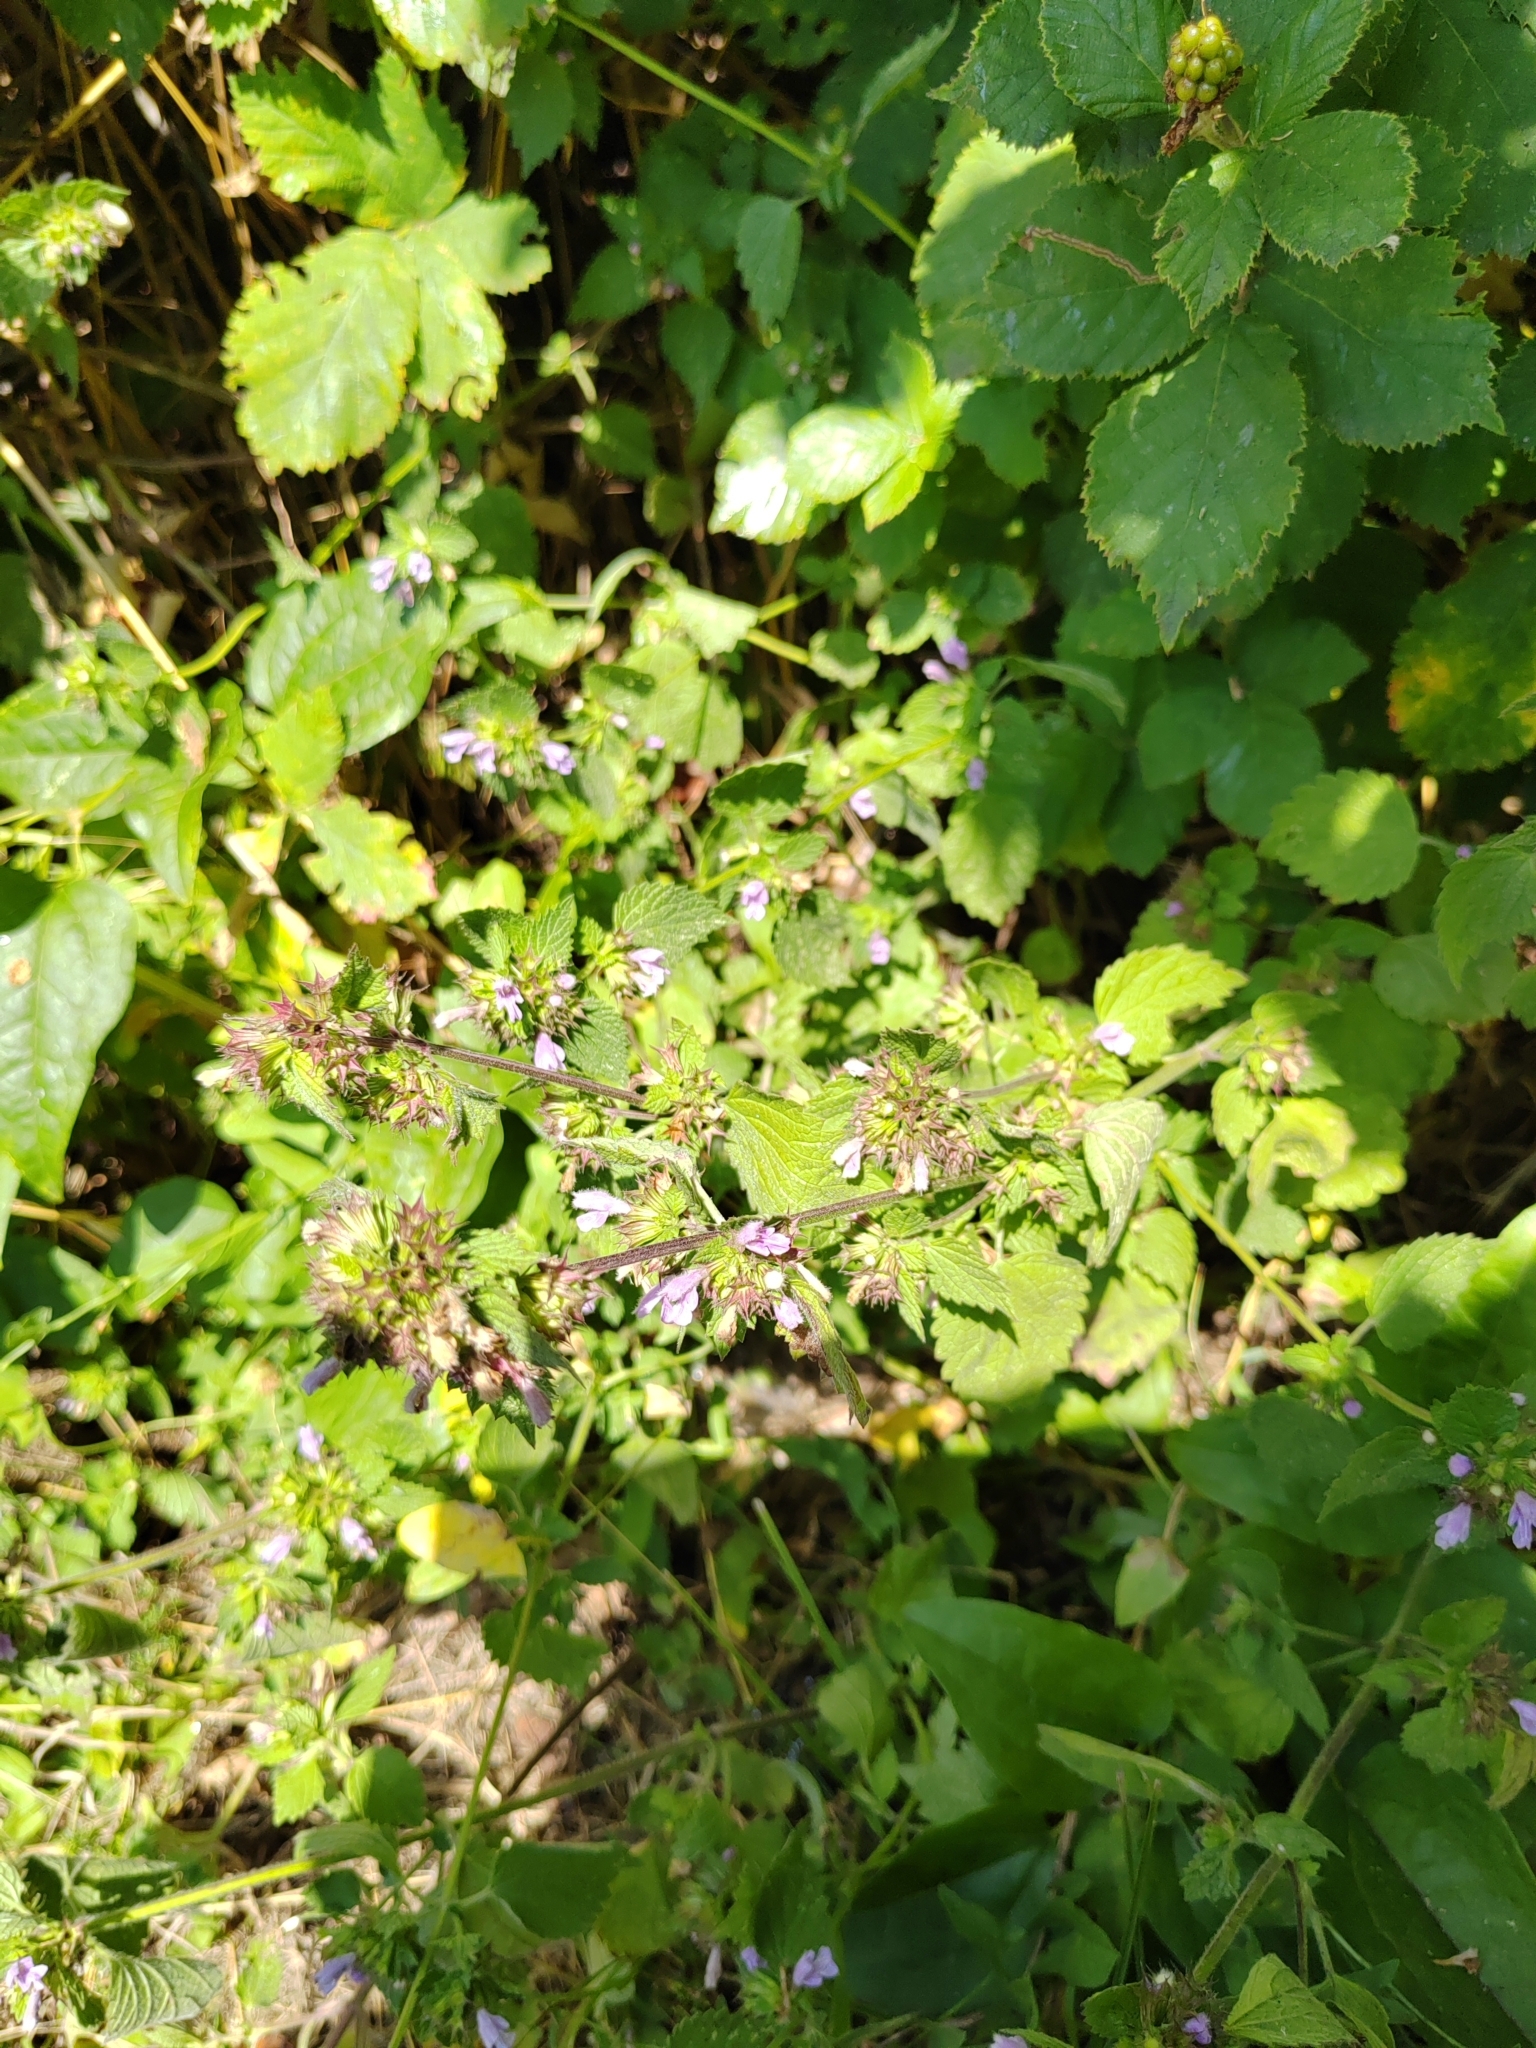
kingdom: Plantae
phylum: Tracheophyta
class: Magnoliopsida
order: Lamiales
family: Lamiaceae
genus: Ballota
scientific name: Ballota nigra
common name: Black horehound
